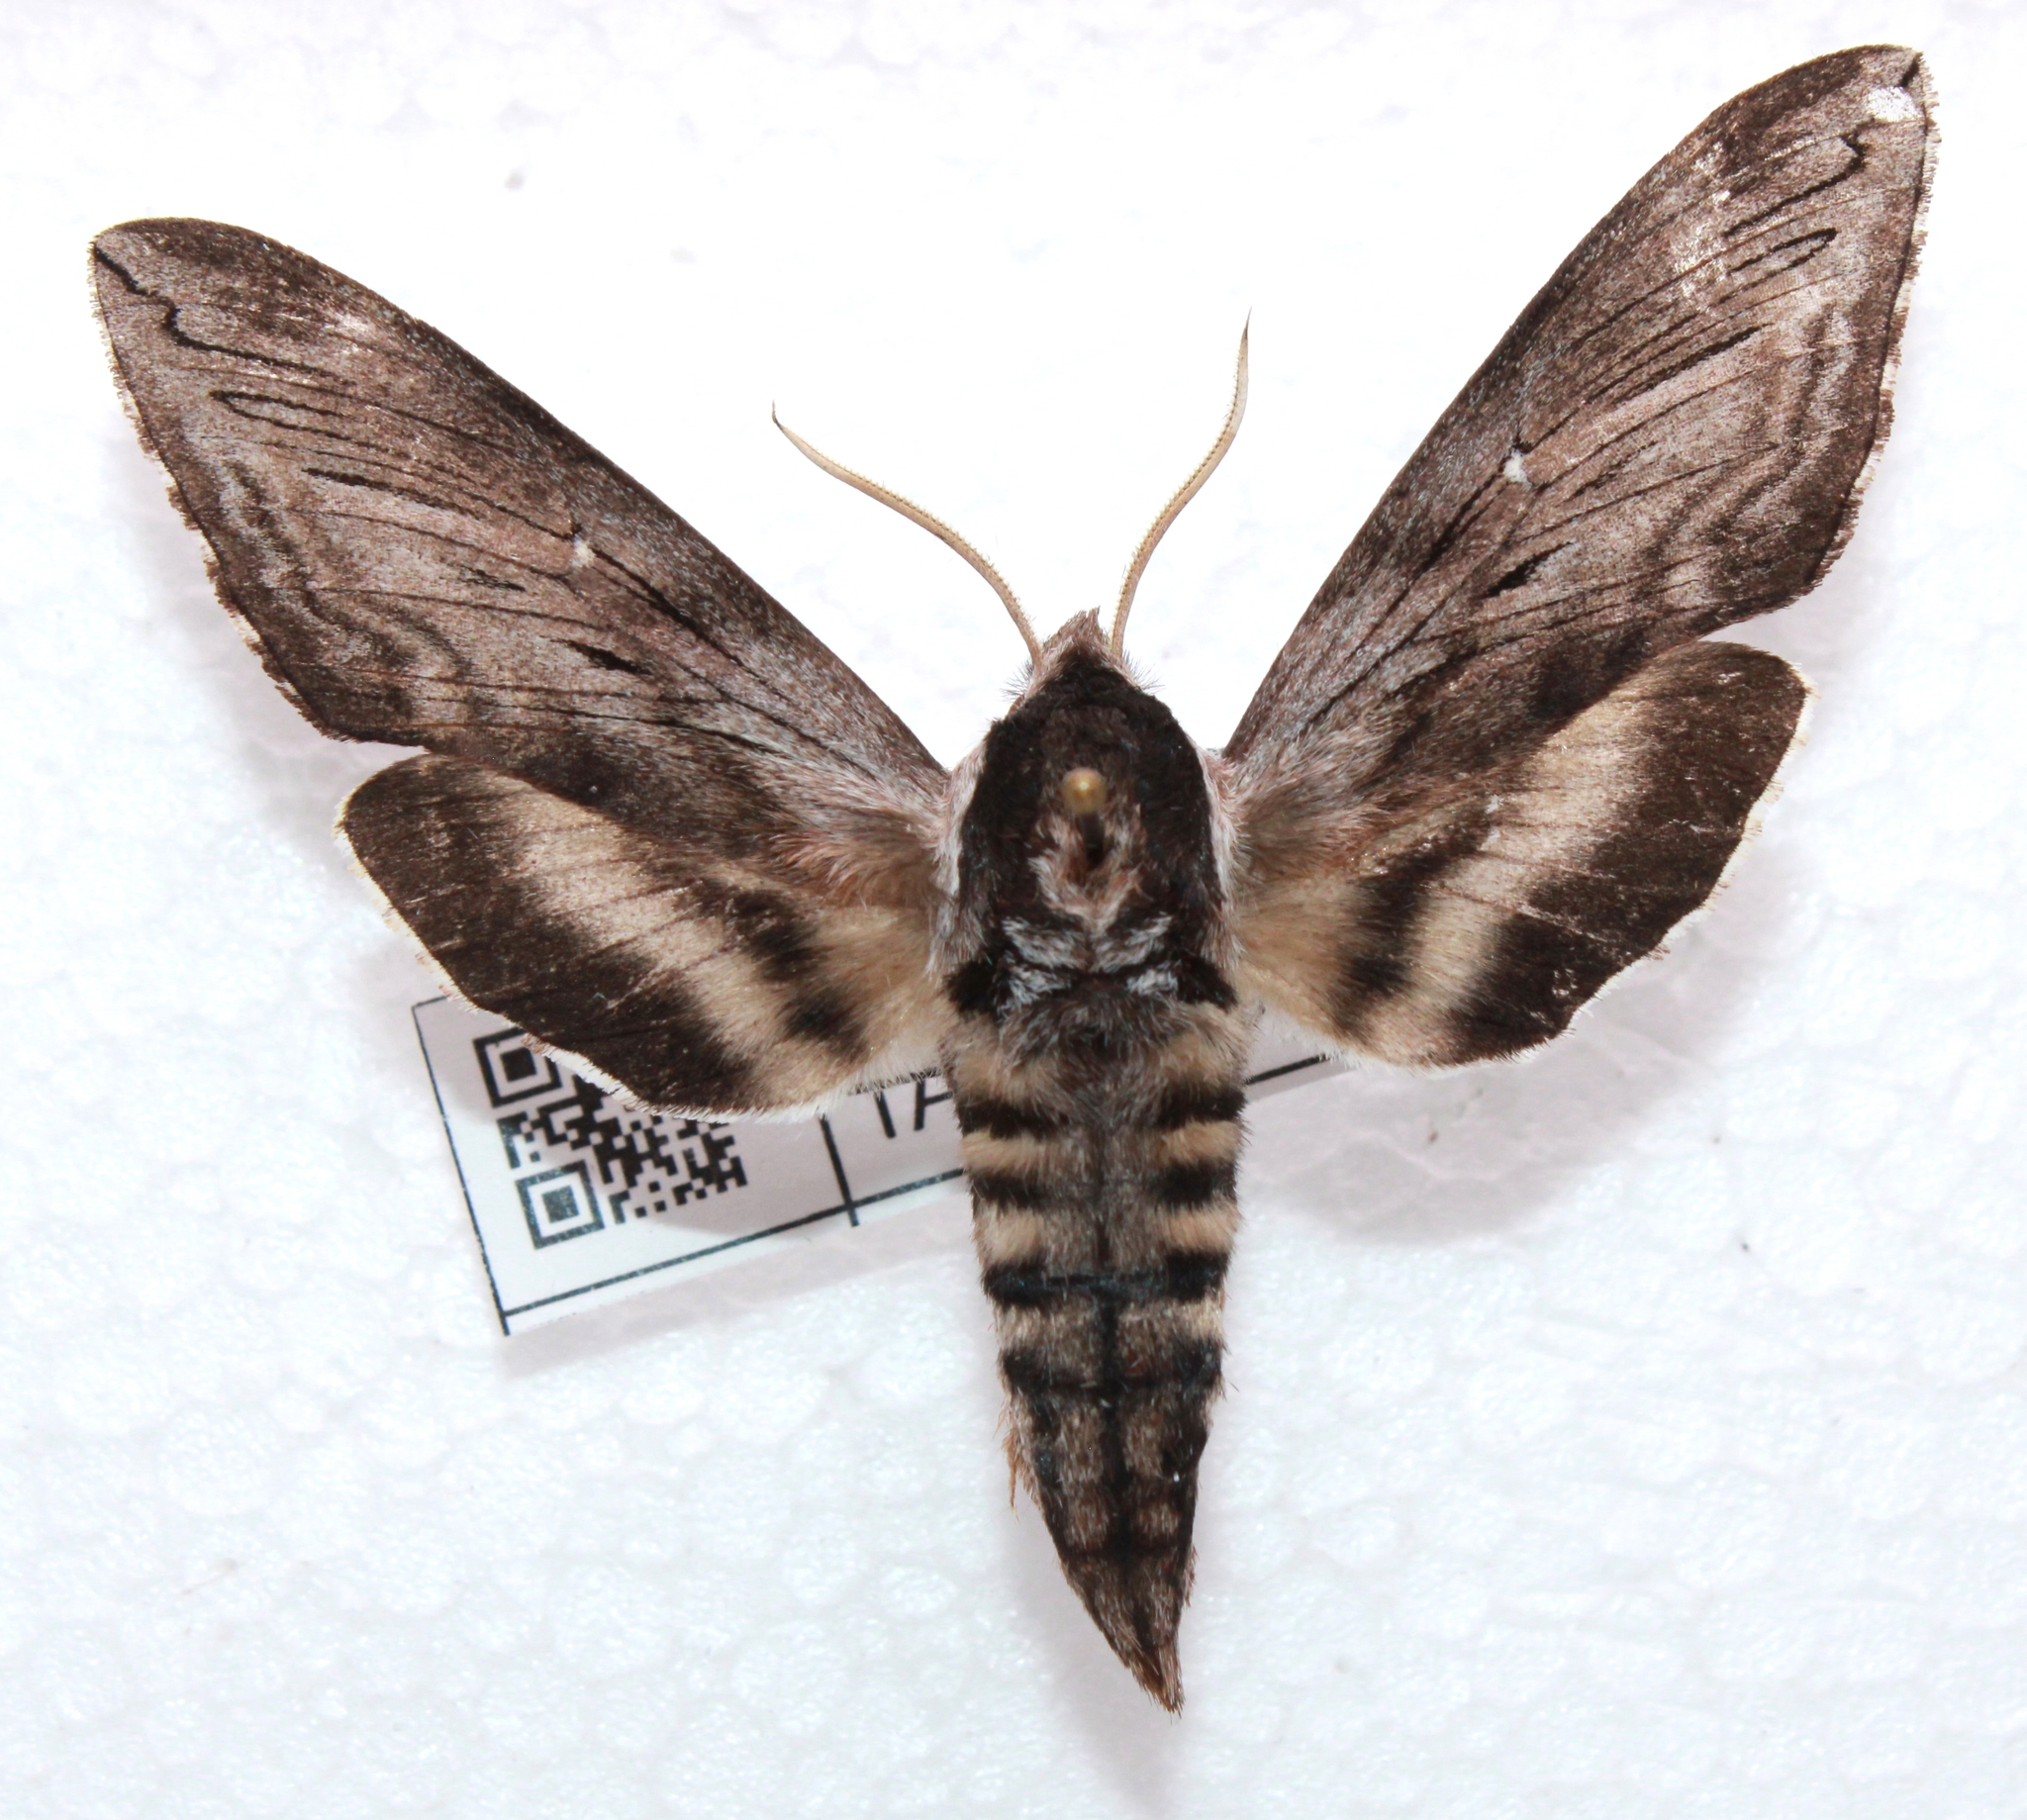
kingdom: Animalia
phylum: Arthropoda
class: Insecta
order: Lepidoptera
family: Sphingidae
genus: Sphinx
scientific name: Sphinx gordius
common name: Apple sphinx
